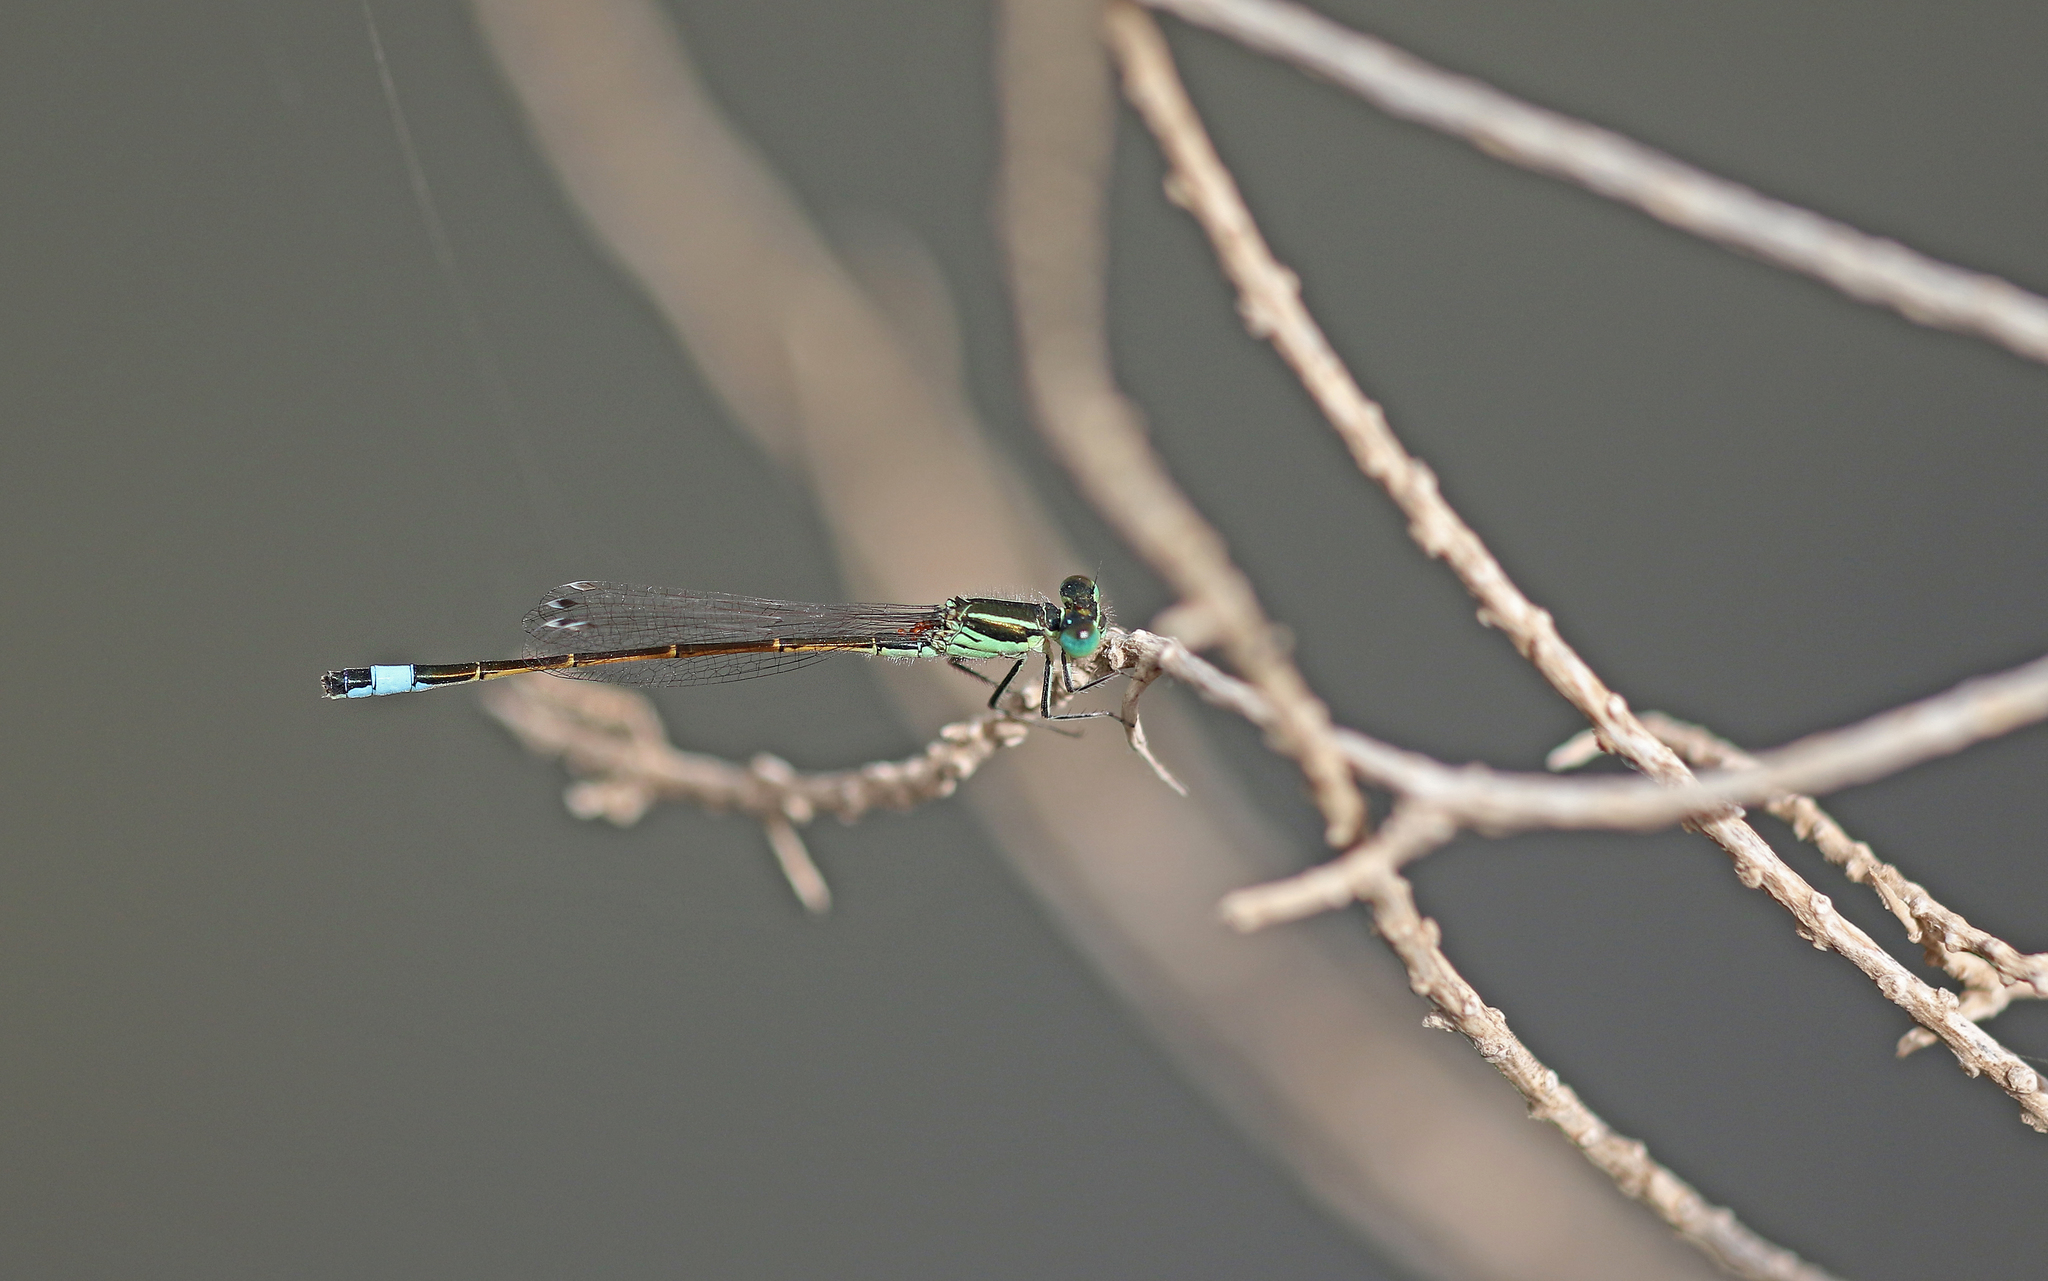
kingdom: Animalia
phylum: Arthropoda
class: Insecta
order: Odonata
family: Coenagrionidae
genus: Ischnura
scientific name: Ischnura saharensis
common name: Sahara bluetail
